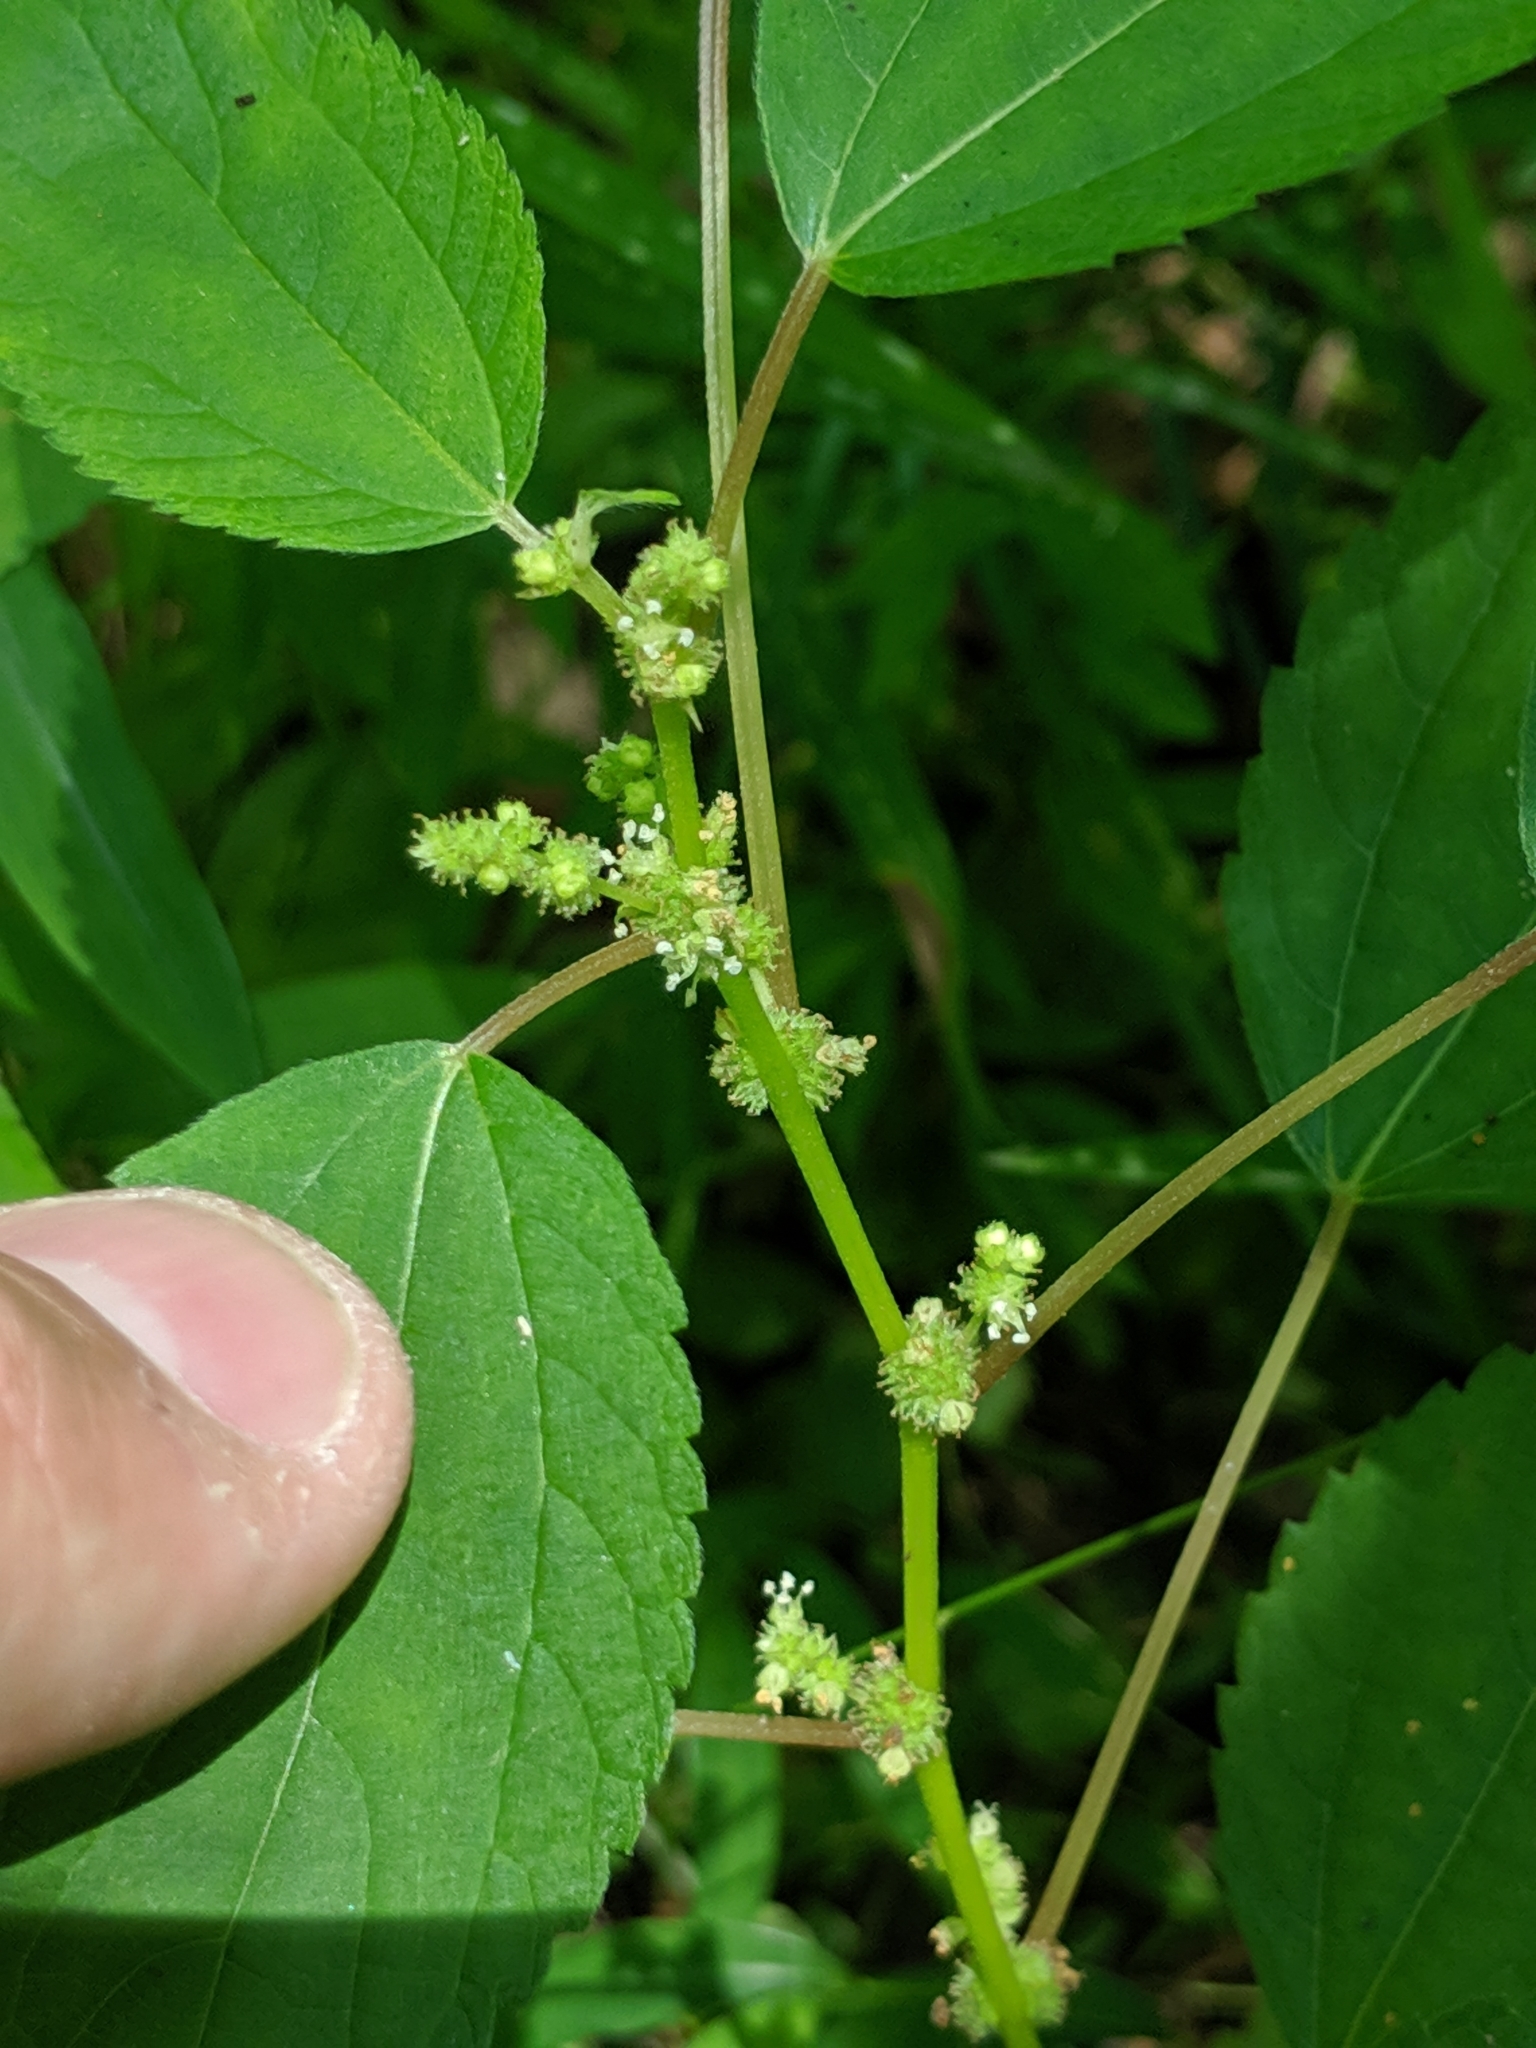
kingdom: Plantae
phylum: Tracheophyta
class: Magnoliopsida
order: Rosales
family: Urticaceae
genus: Boehmeria
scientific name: Boehmeria cylindrica
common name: Bog-hemp
